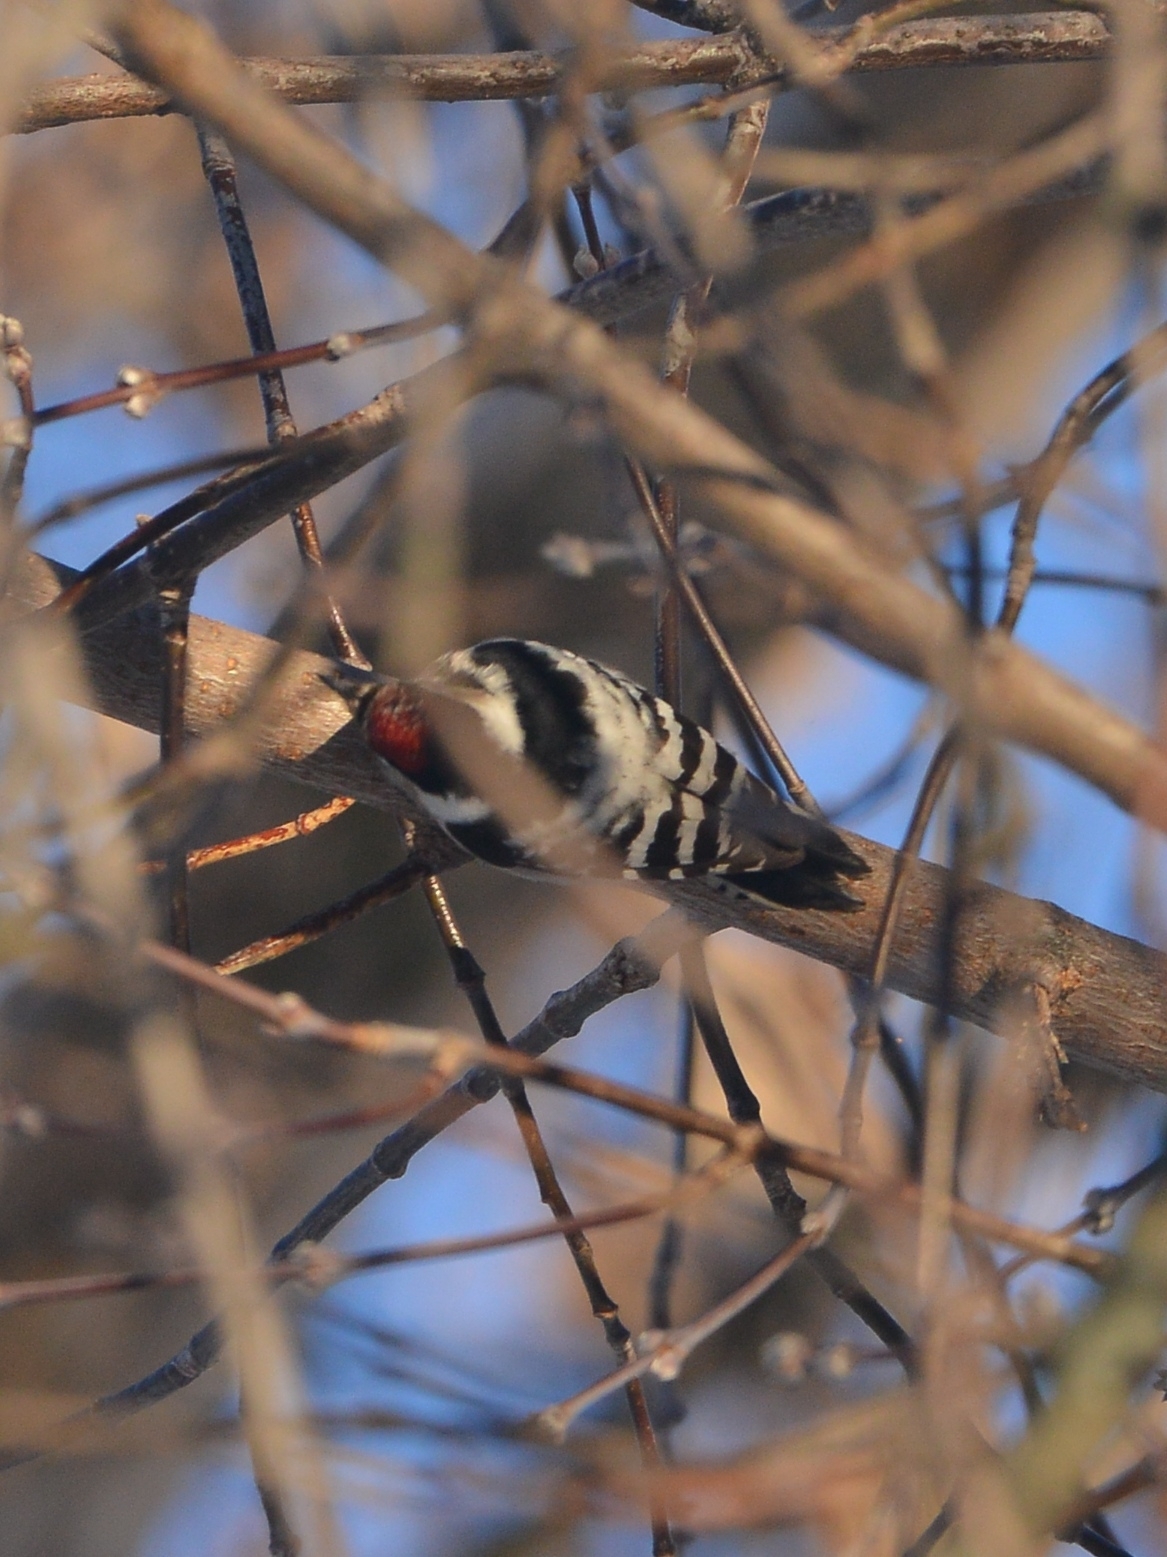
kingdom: Animalia
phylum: Chordata
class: Aves
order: Piciformes
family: Picidae
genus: Dryobates
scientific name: Dryobates minor
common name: Lesser spotted woodpecker
